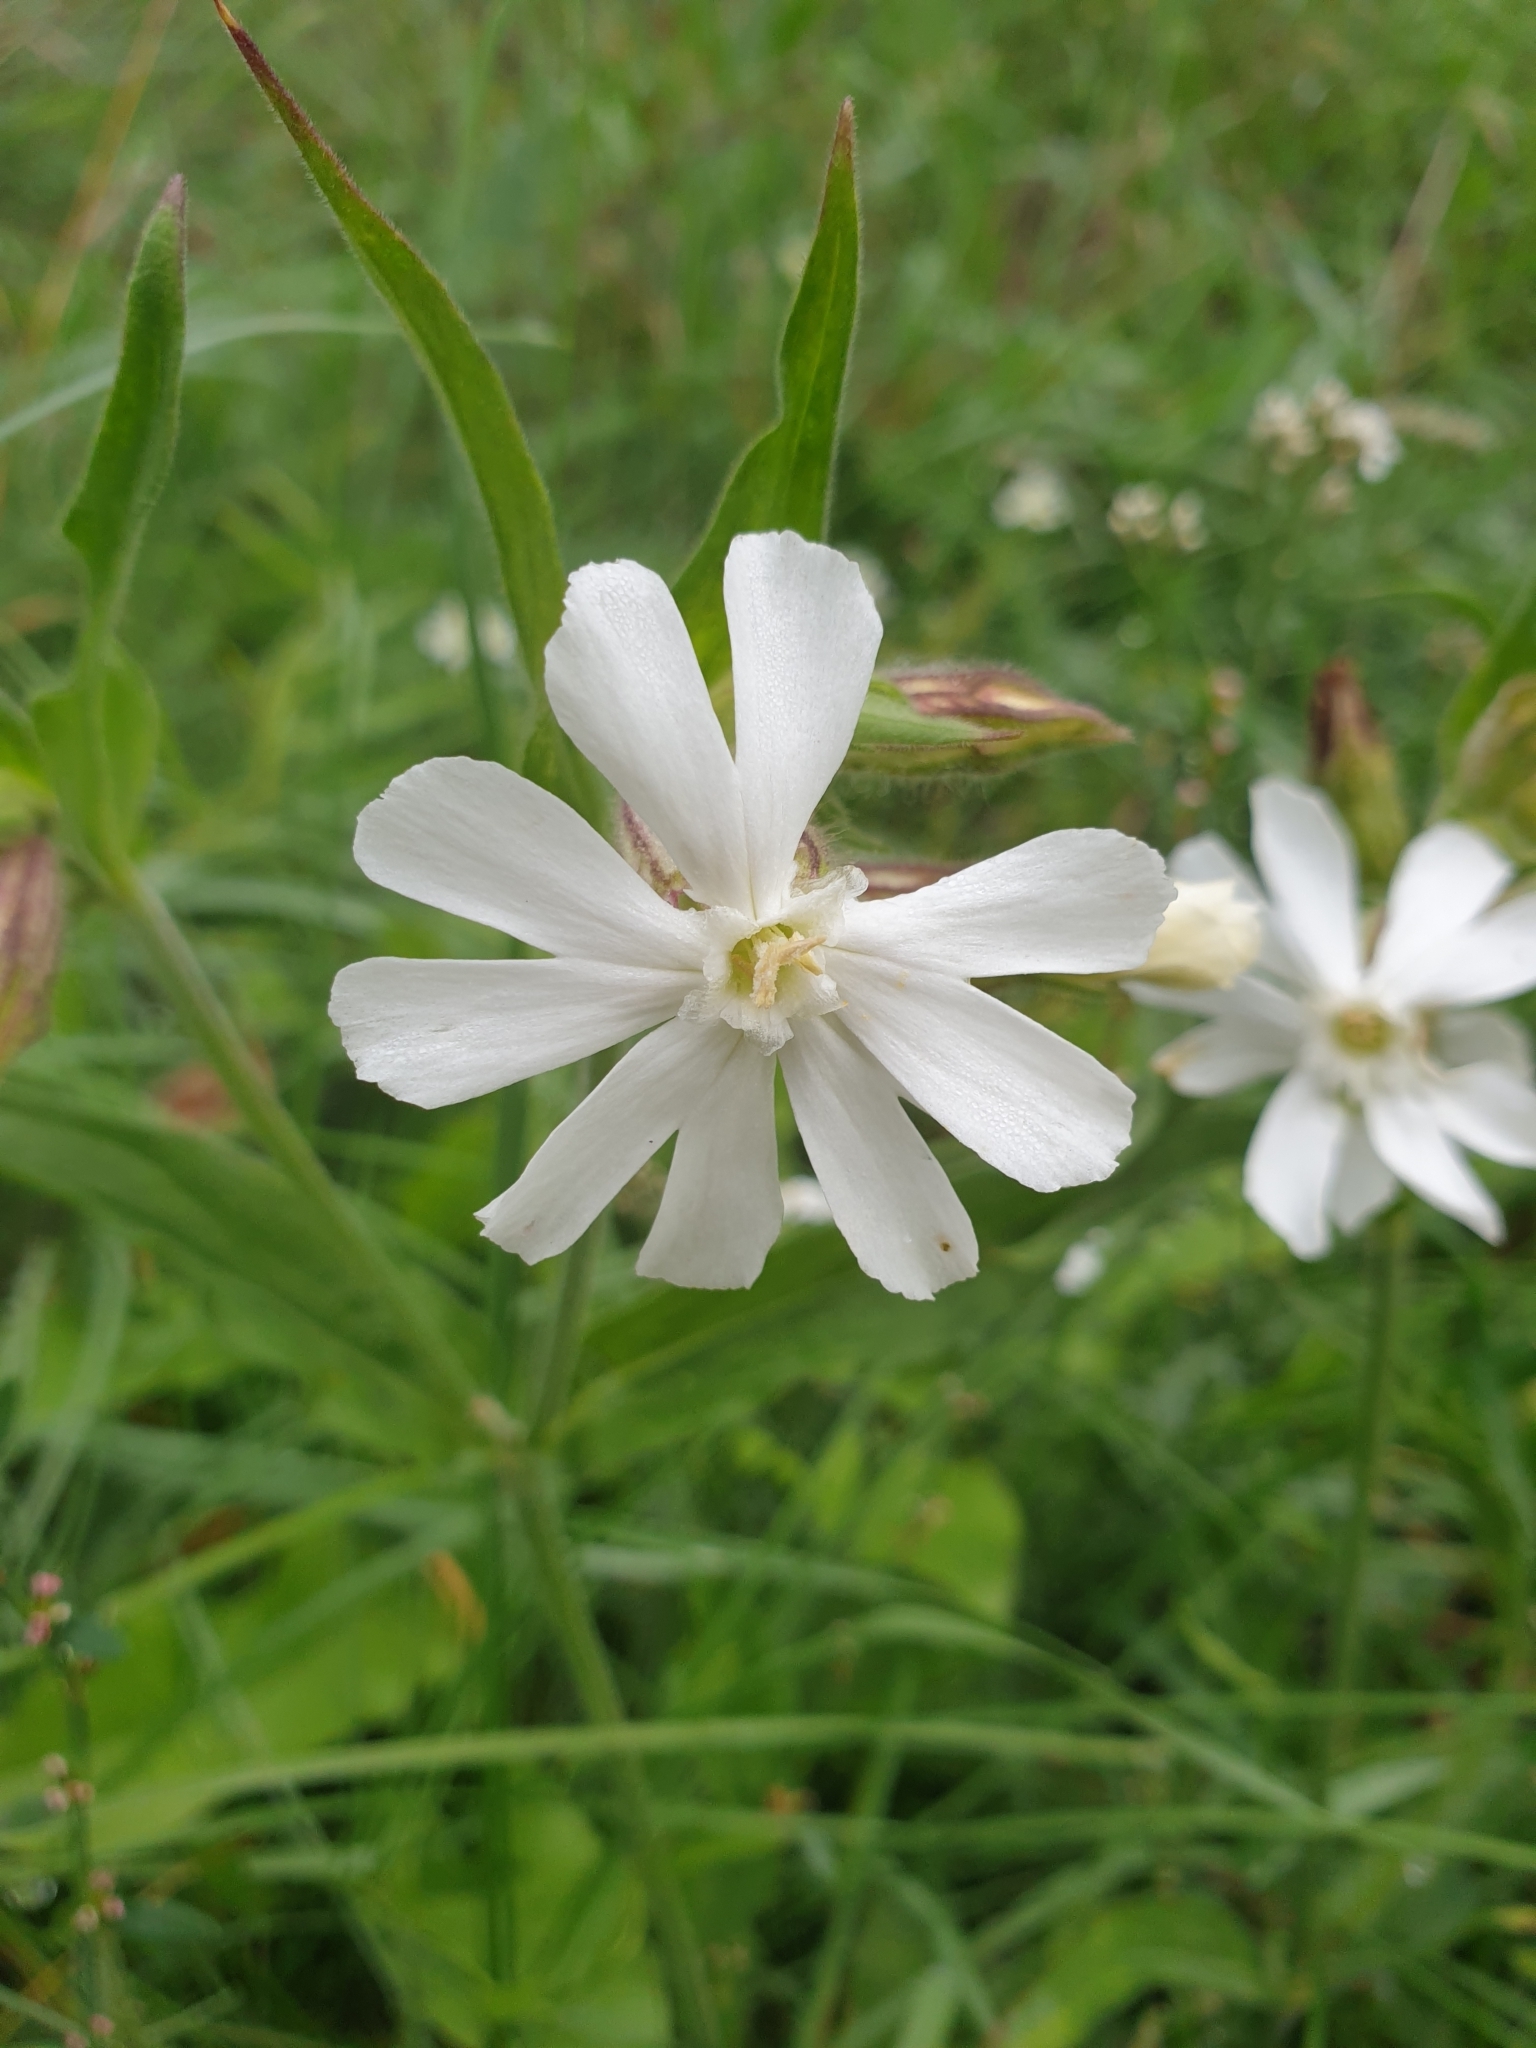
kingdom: Plantae
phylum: Tracheophyta
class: Magnoliopsida
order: Caryophyllales
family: Caryophyllaceae
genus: Silene
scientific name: Silene latifolia
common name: White campion
